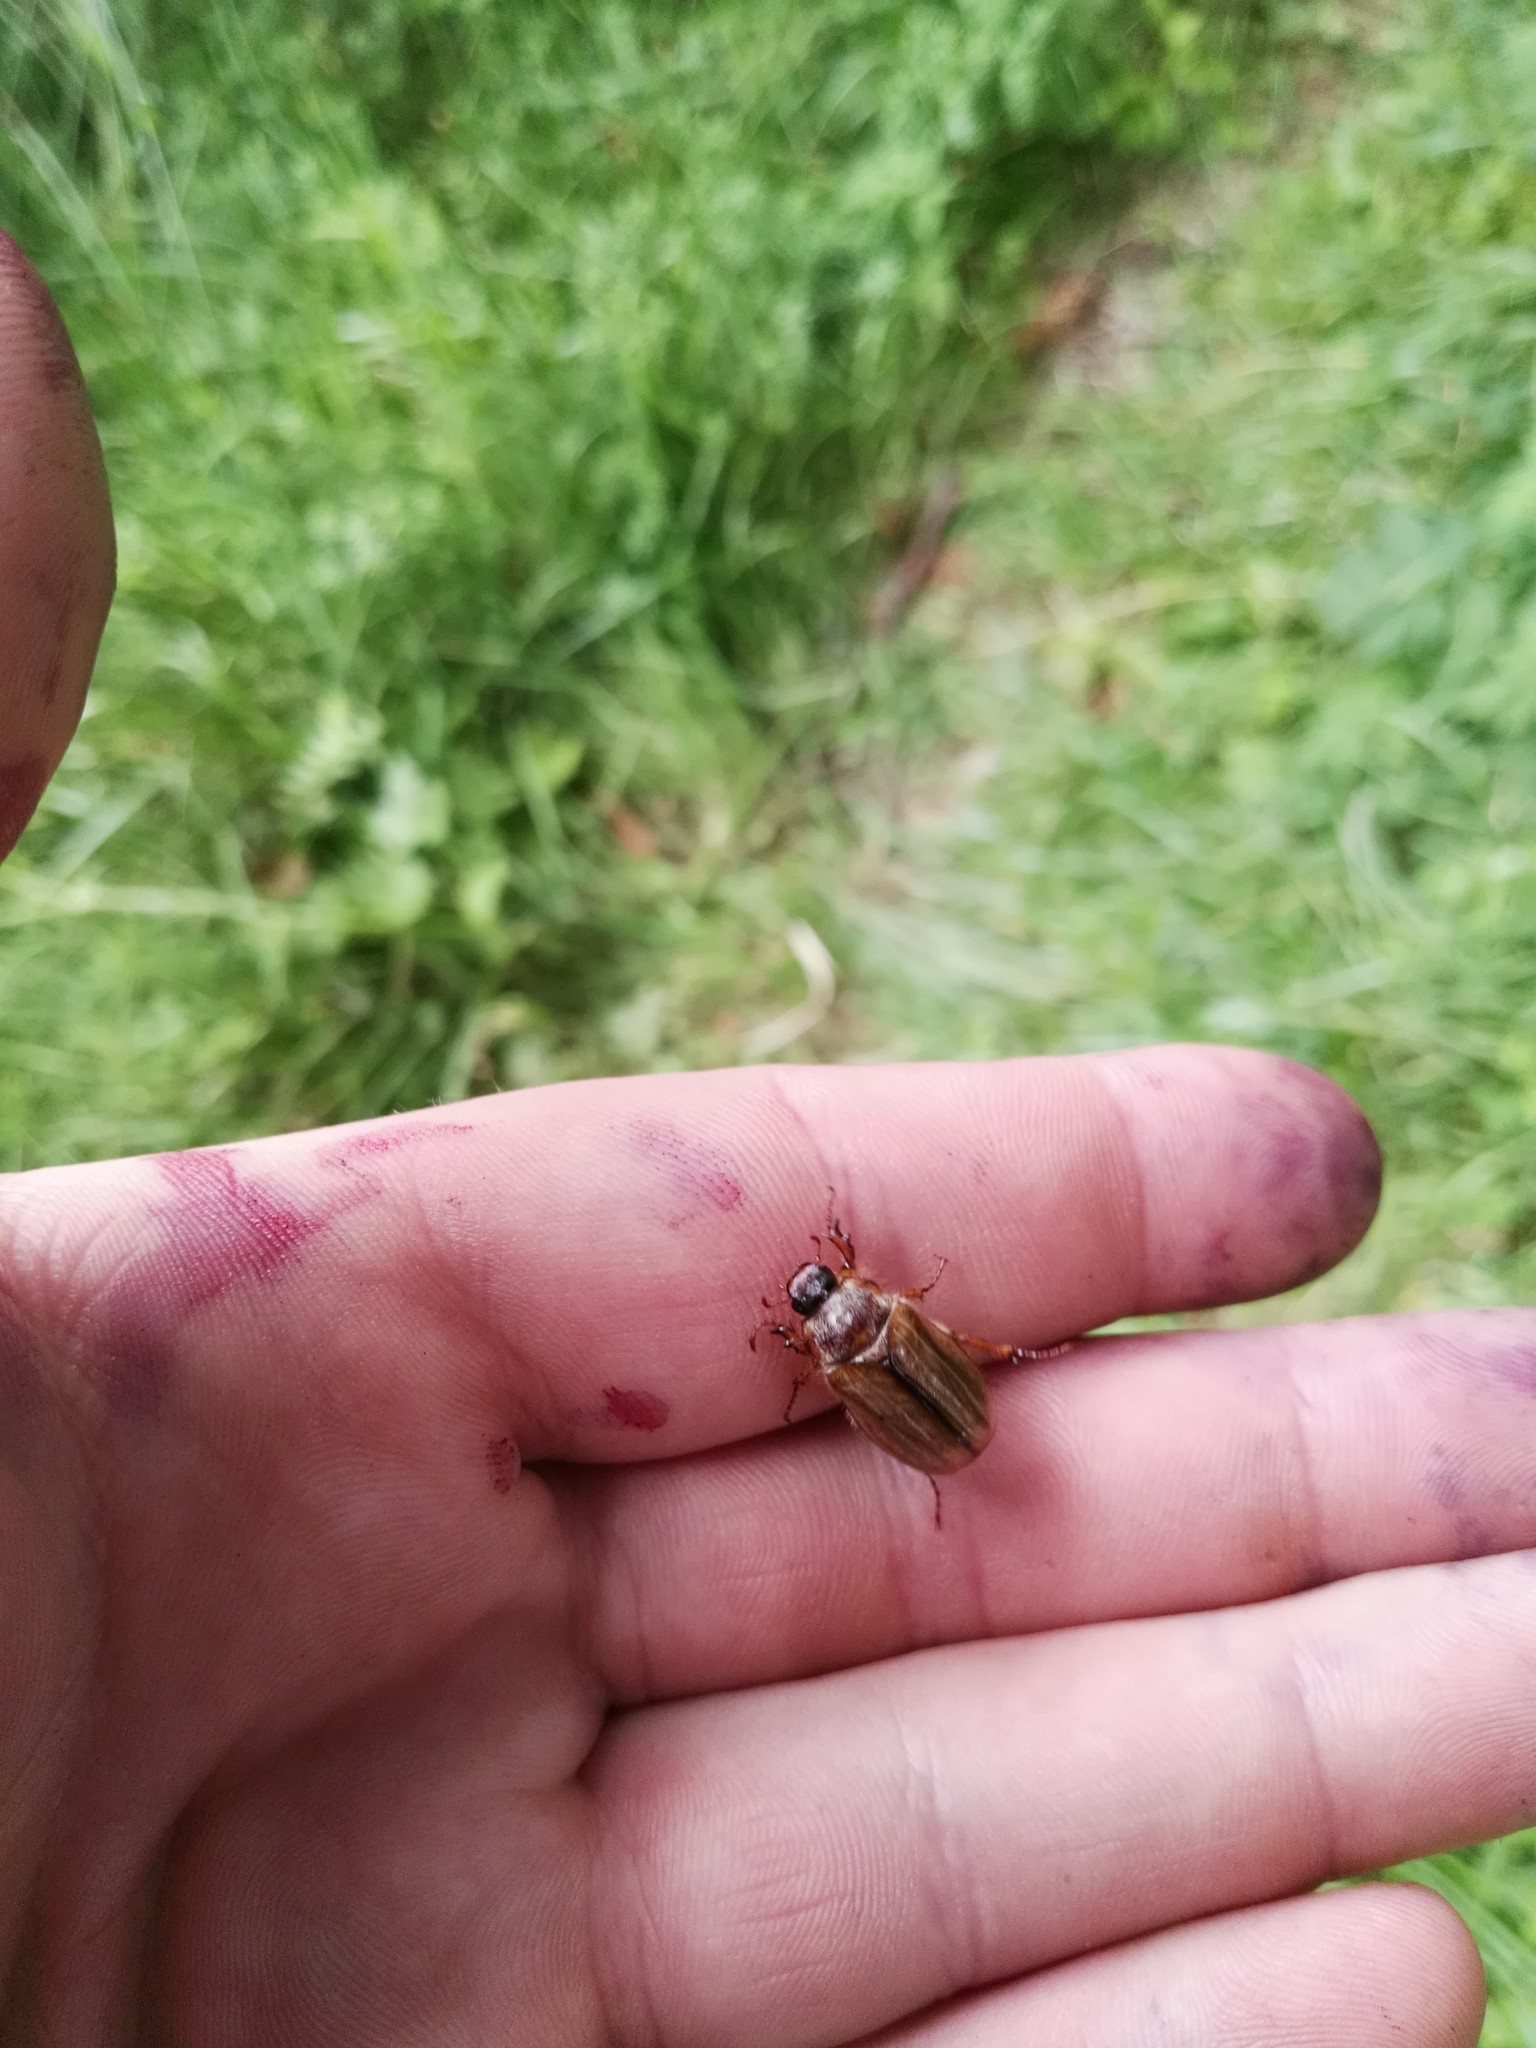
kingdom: Animalia
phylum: Arthropoda
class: Insecta
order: Coleoptera
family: Scarabaeidae
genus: Amphimallon
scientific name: Amphimallon solstitiale
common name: Summer chafer
